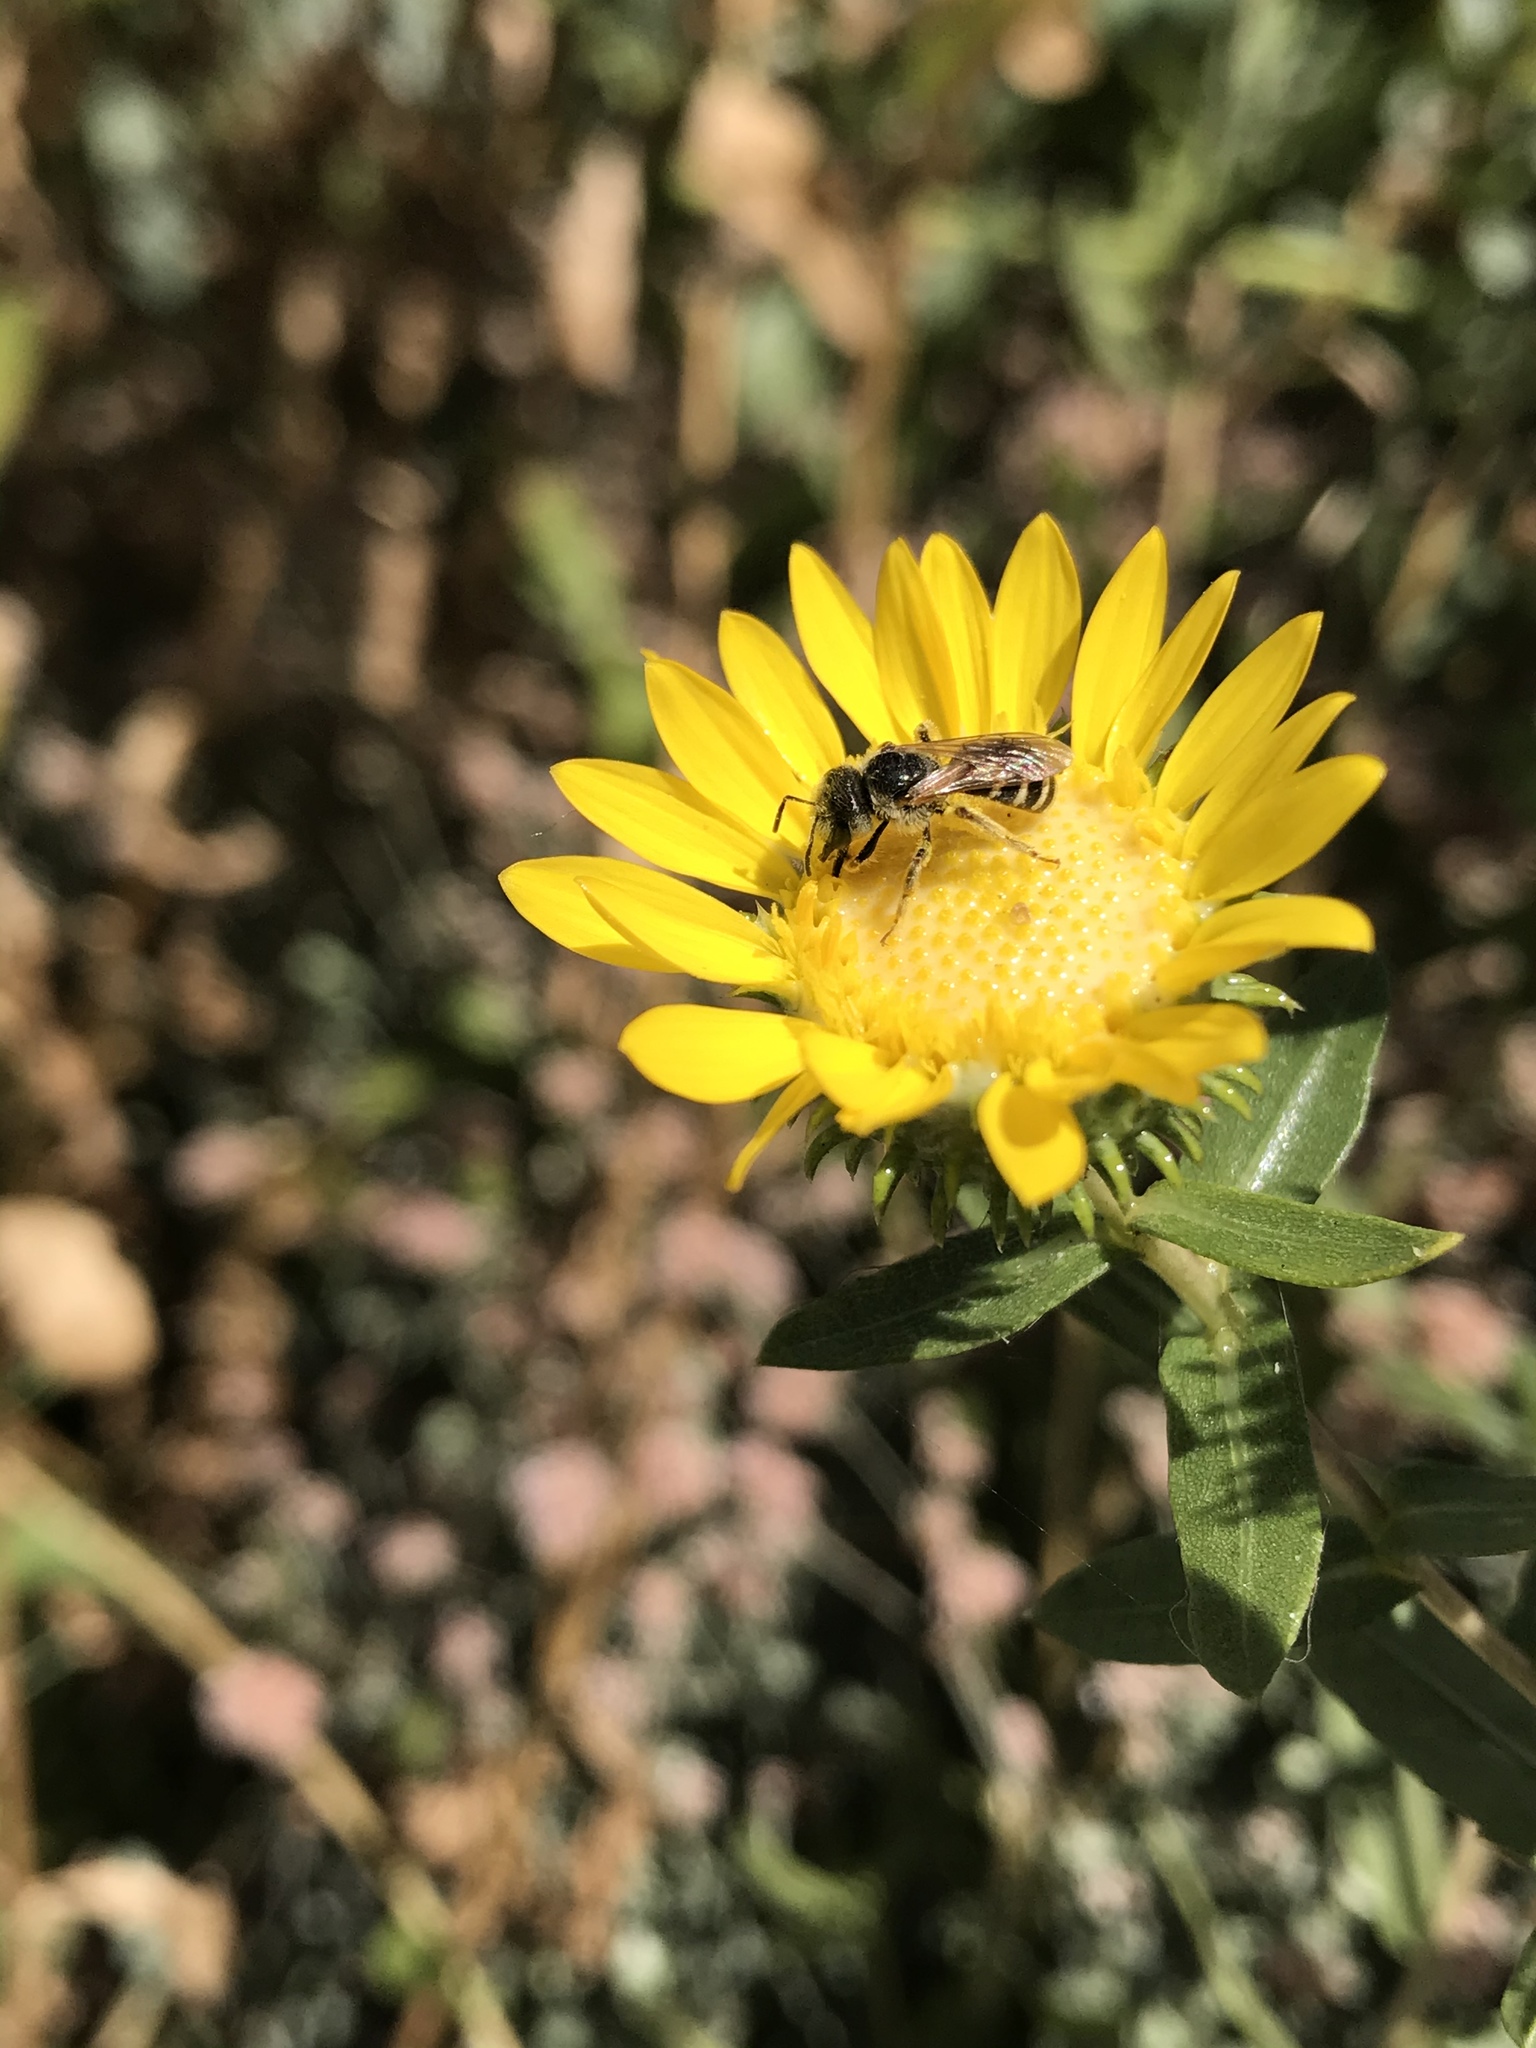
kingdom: Animalia
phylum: Arthropoda
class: Insecta
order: Hymenoptera
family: Halictidae
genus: Halictus
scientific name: Halictus ligatus
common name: Ligated furrow bee
